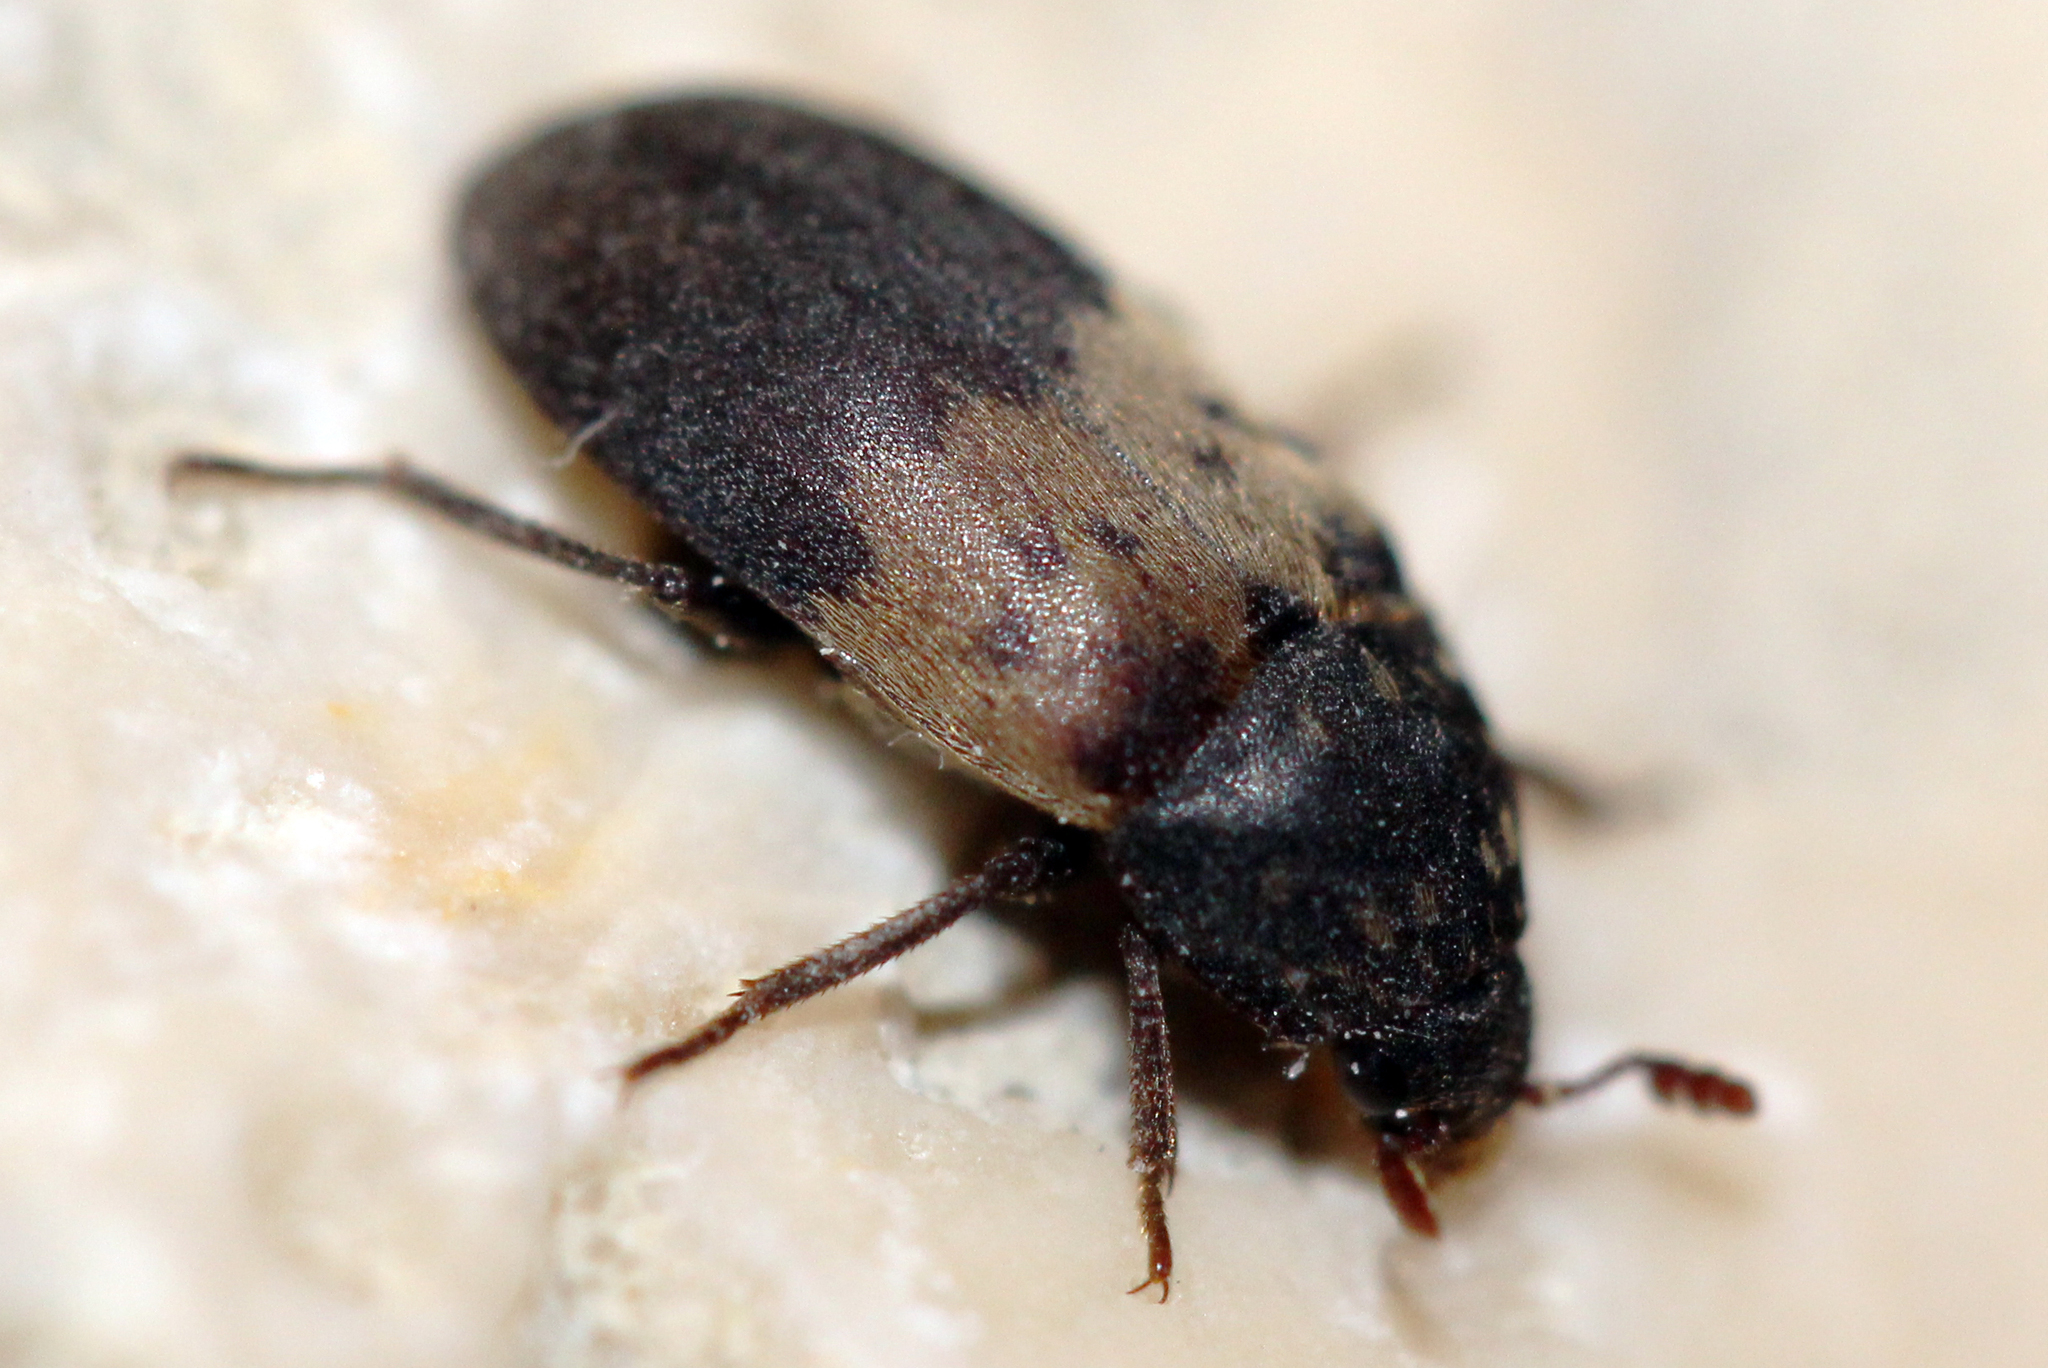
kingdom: Animalia
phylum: Arthropoda
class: Insecta
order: Coleoptera
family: Dermestidae
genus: Dermestes
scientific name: Dermestes lardarius
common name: Larder beetle
